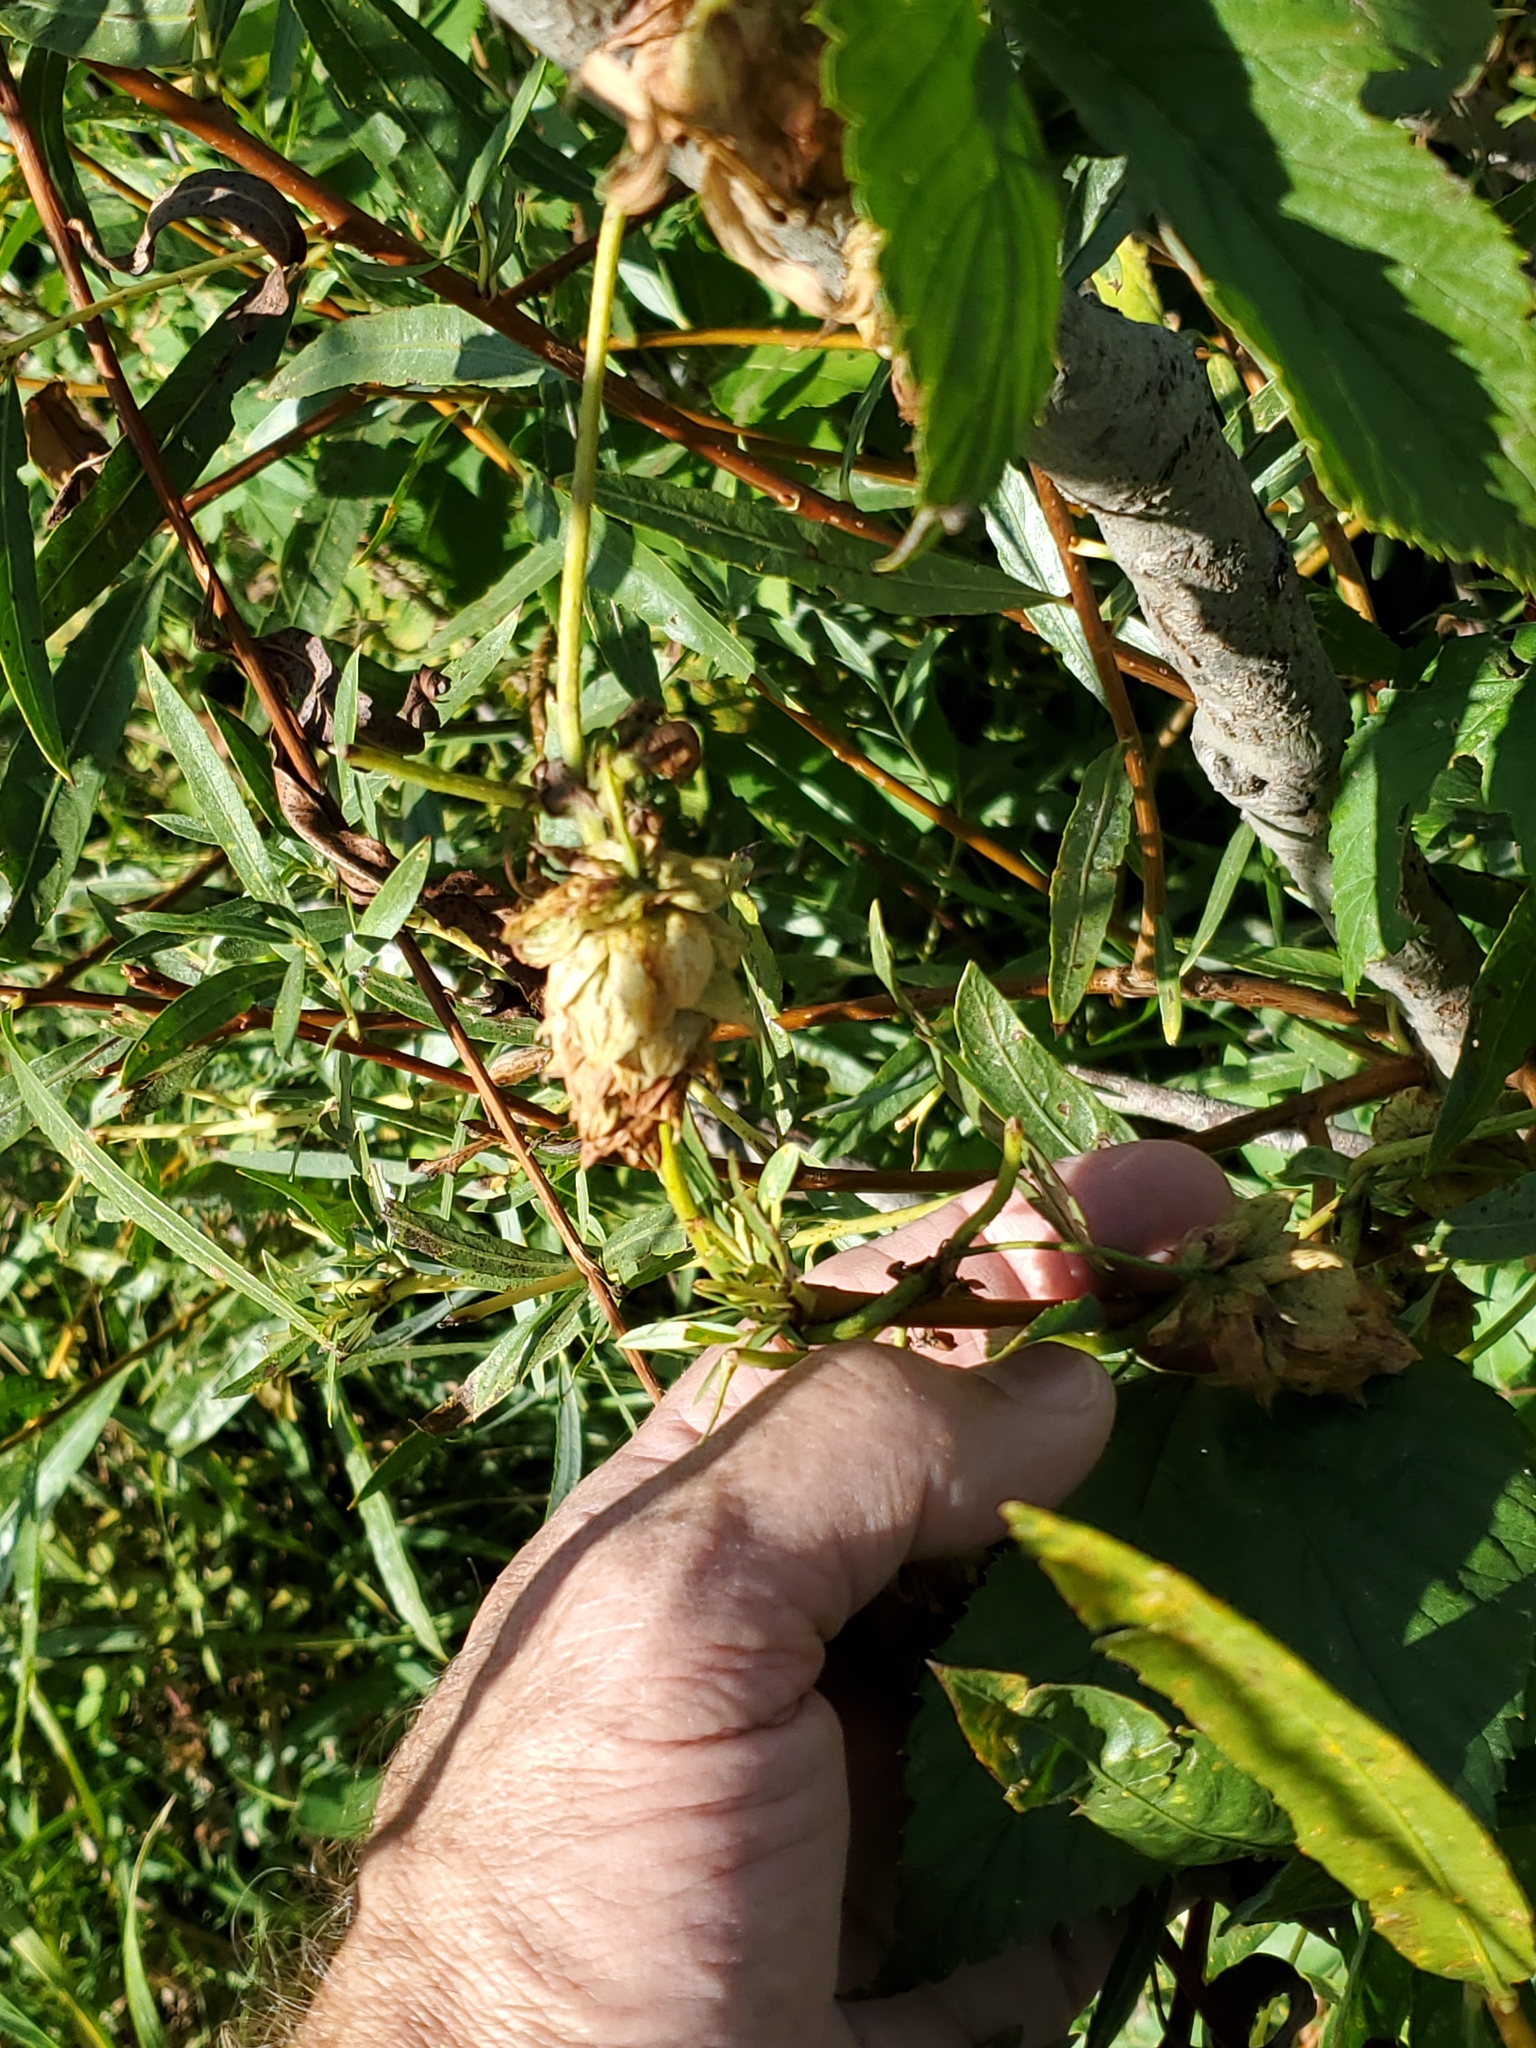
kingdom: Plantae
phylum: Tracheophyta
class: Magnoliopsida
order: Rosales
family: Cannabaceae
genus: Humulus
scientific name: Humulus lupulus
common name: Hop
